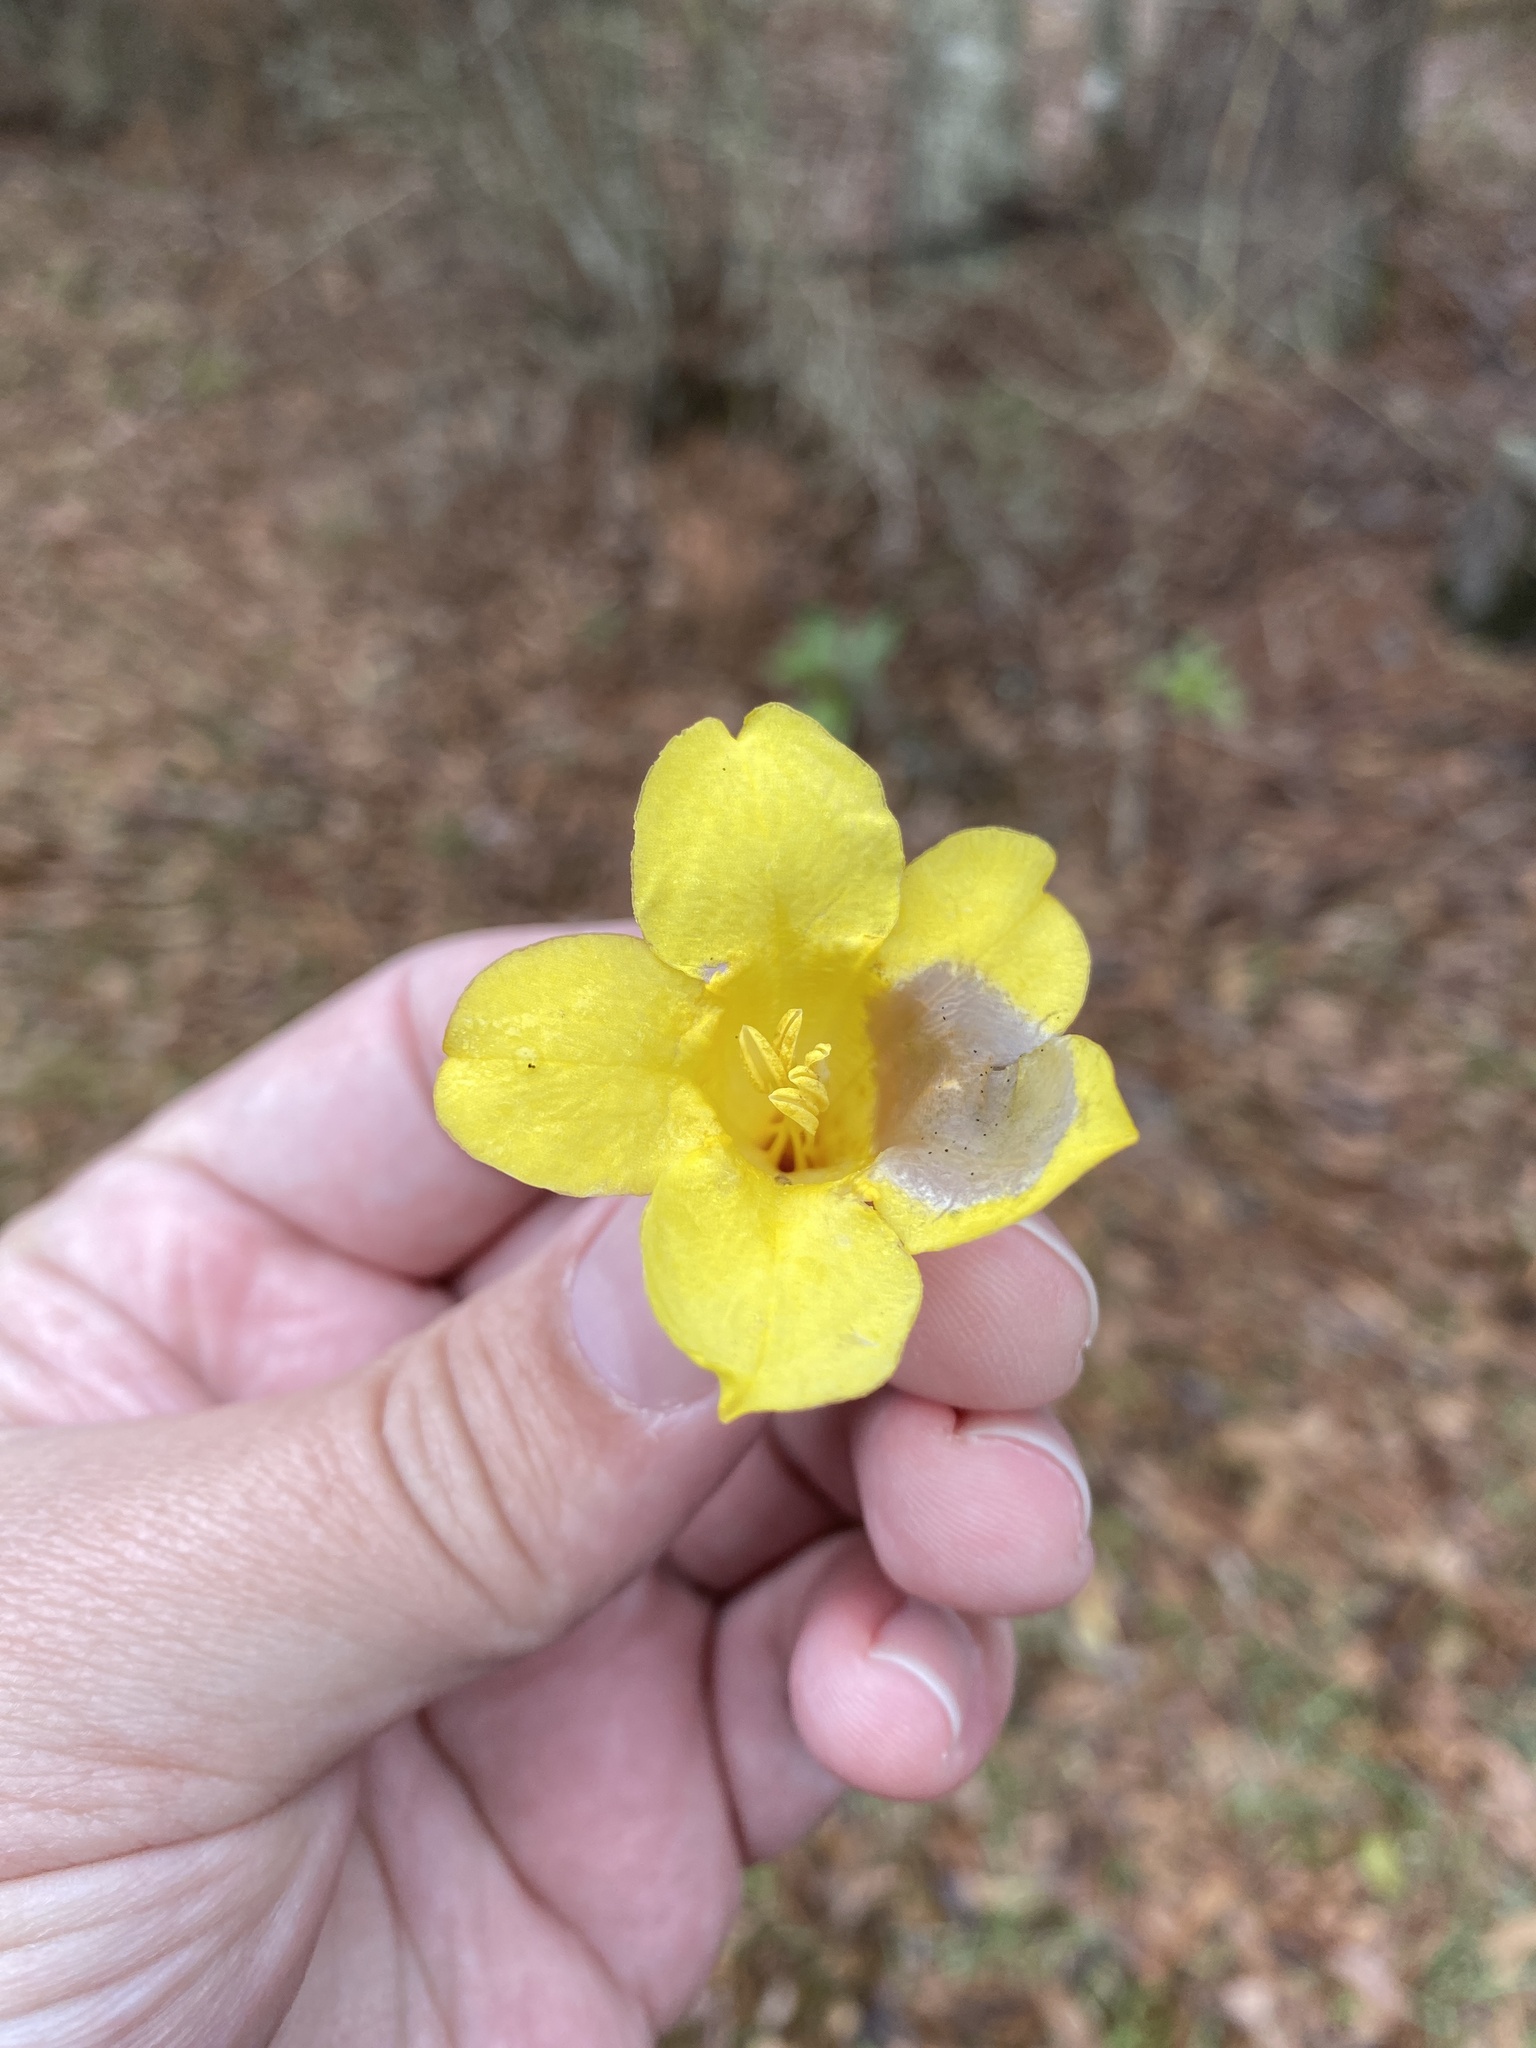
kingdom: Plantae
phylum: Tracheophyta
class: Magnoliopsida
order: Gentianales
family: Gelsemiaceae
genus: Gelsemium
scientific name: Gelsemium sempervirens
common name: Carolina-jasmine
